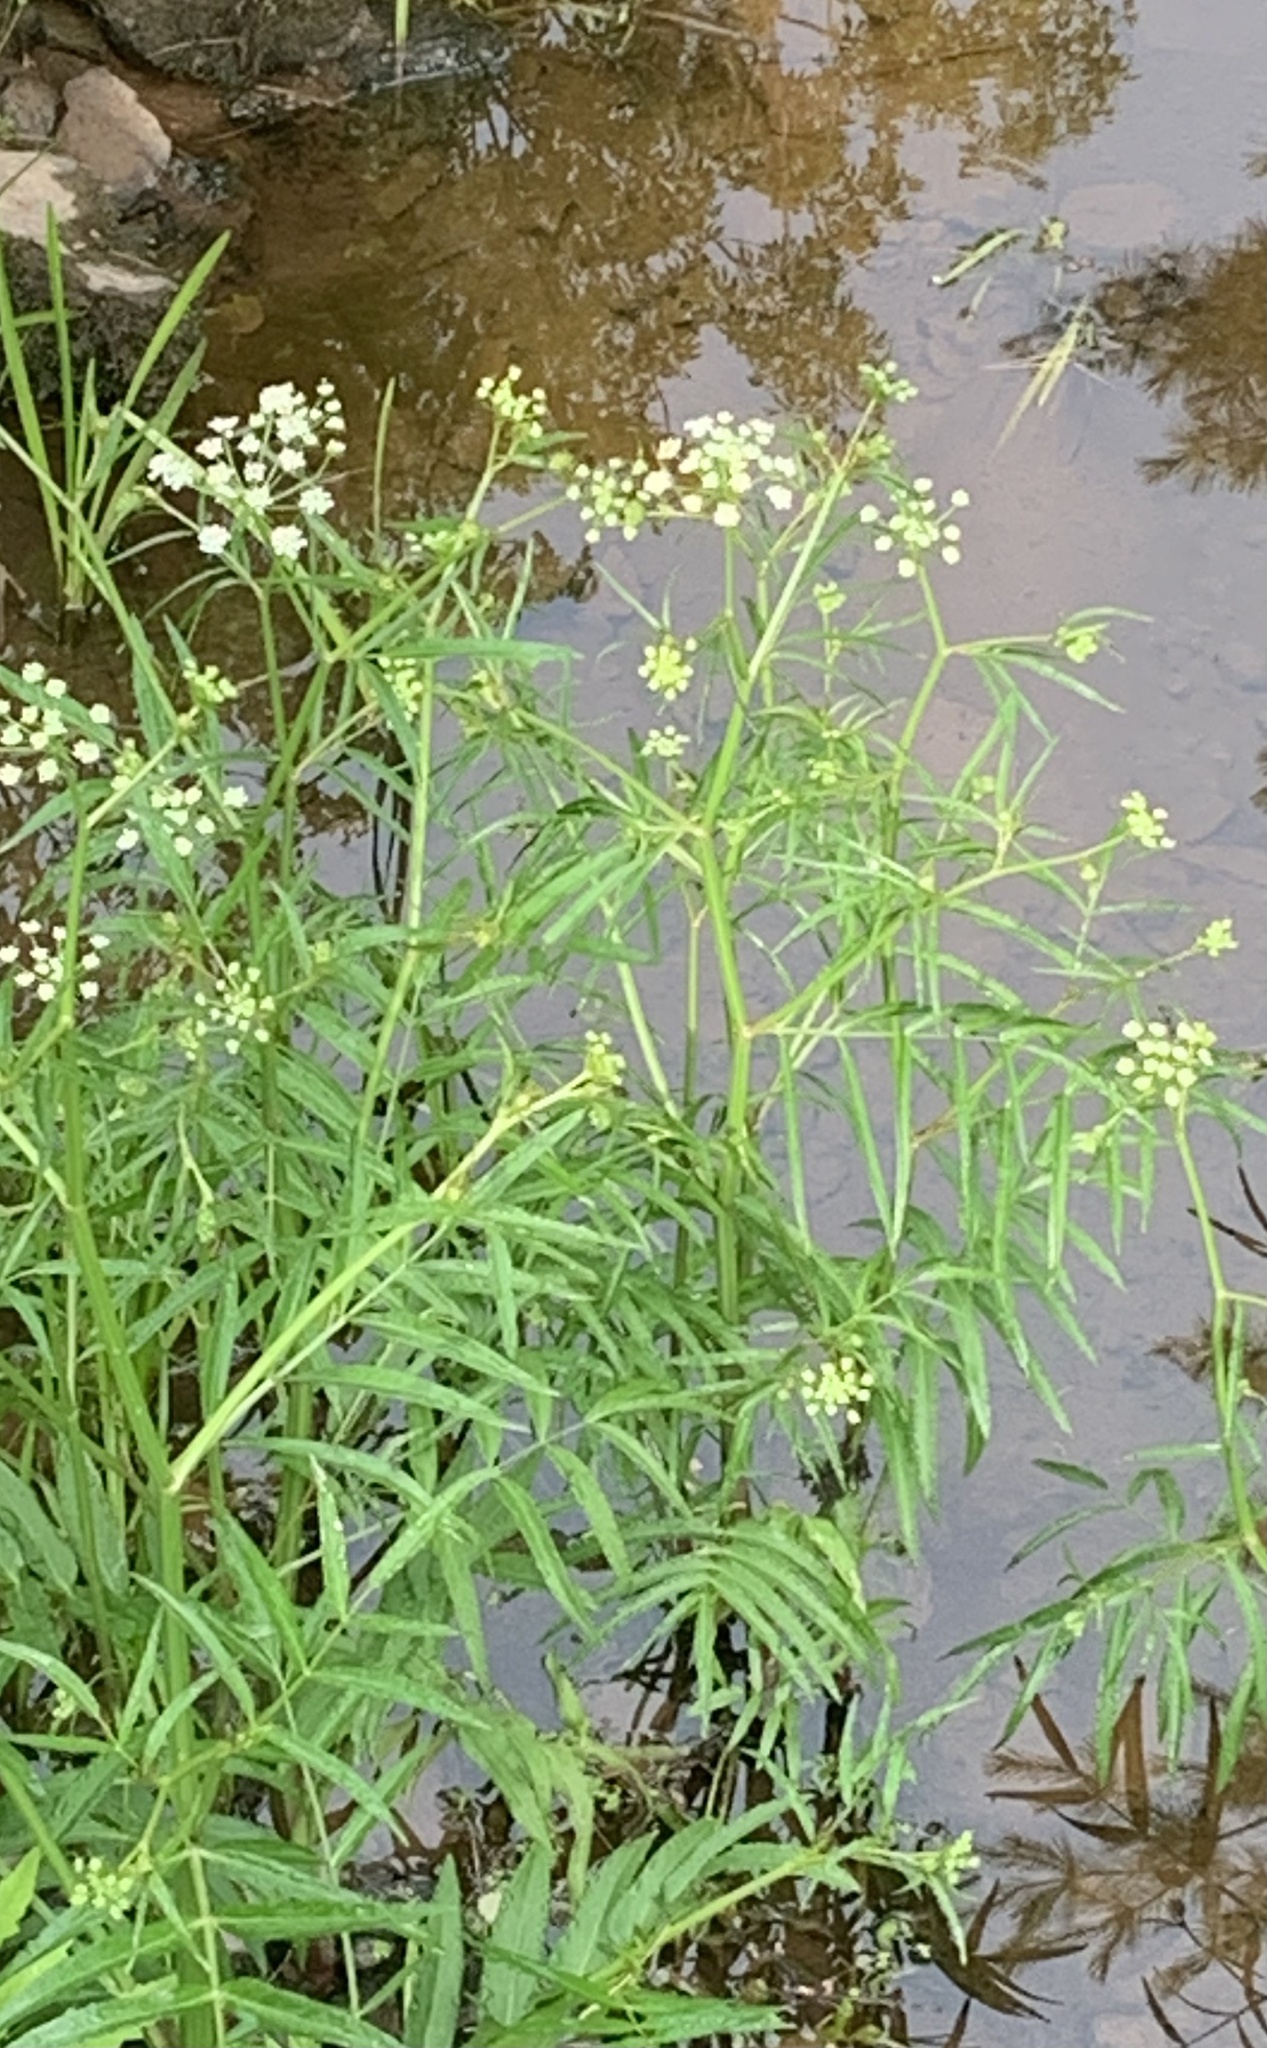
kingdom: Plantae
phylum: Tracheophyta
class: Magnoliopsida
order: Apiales
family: Apiaceae
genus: Sium
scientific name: Sium suave
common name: Hemlock water-parsnip
